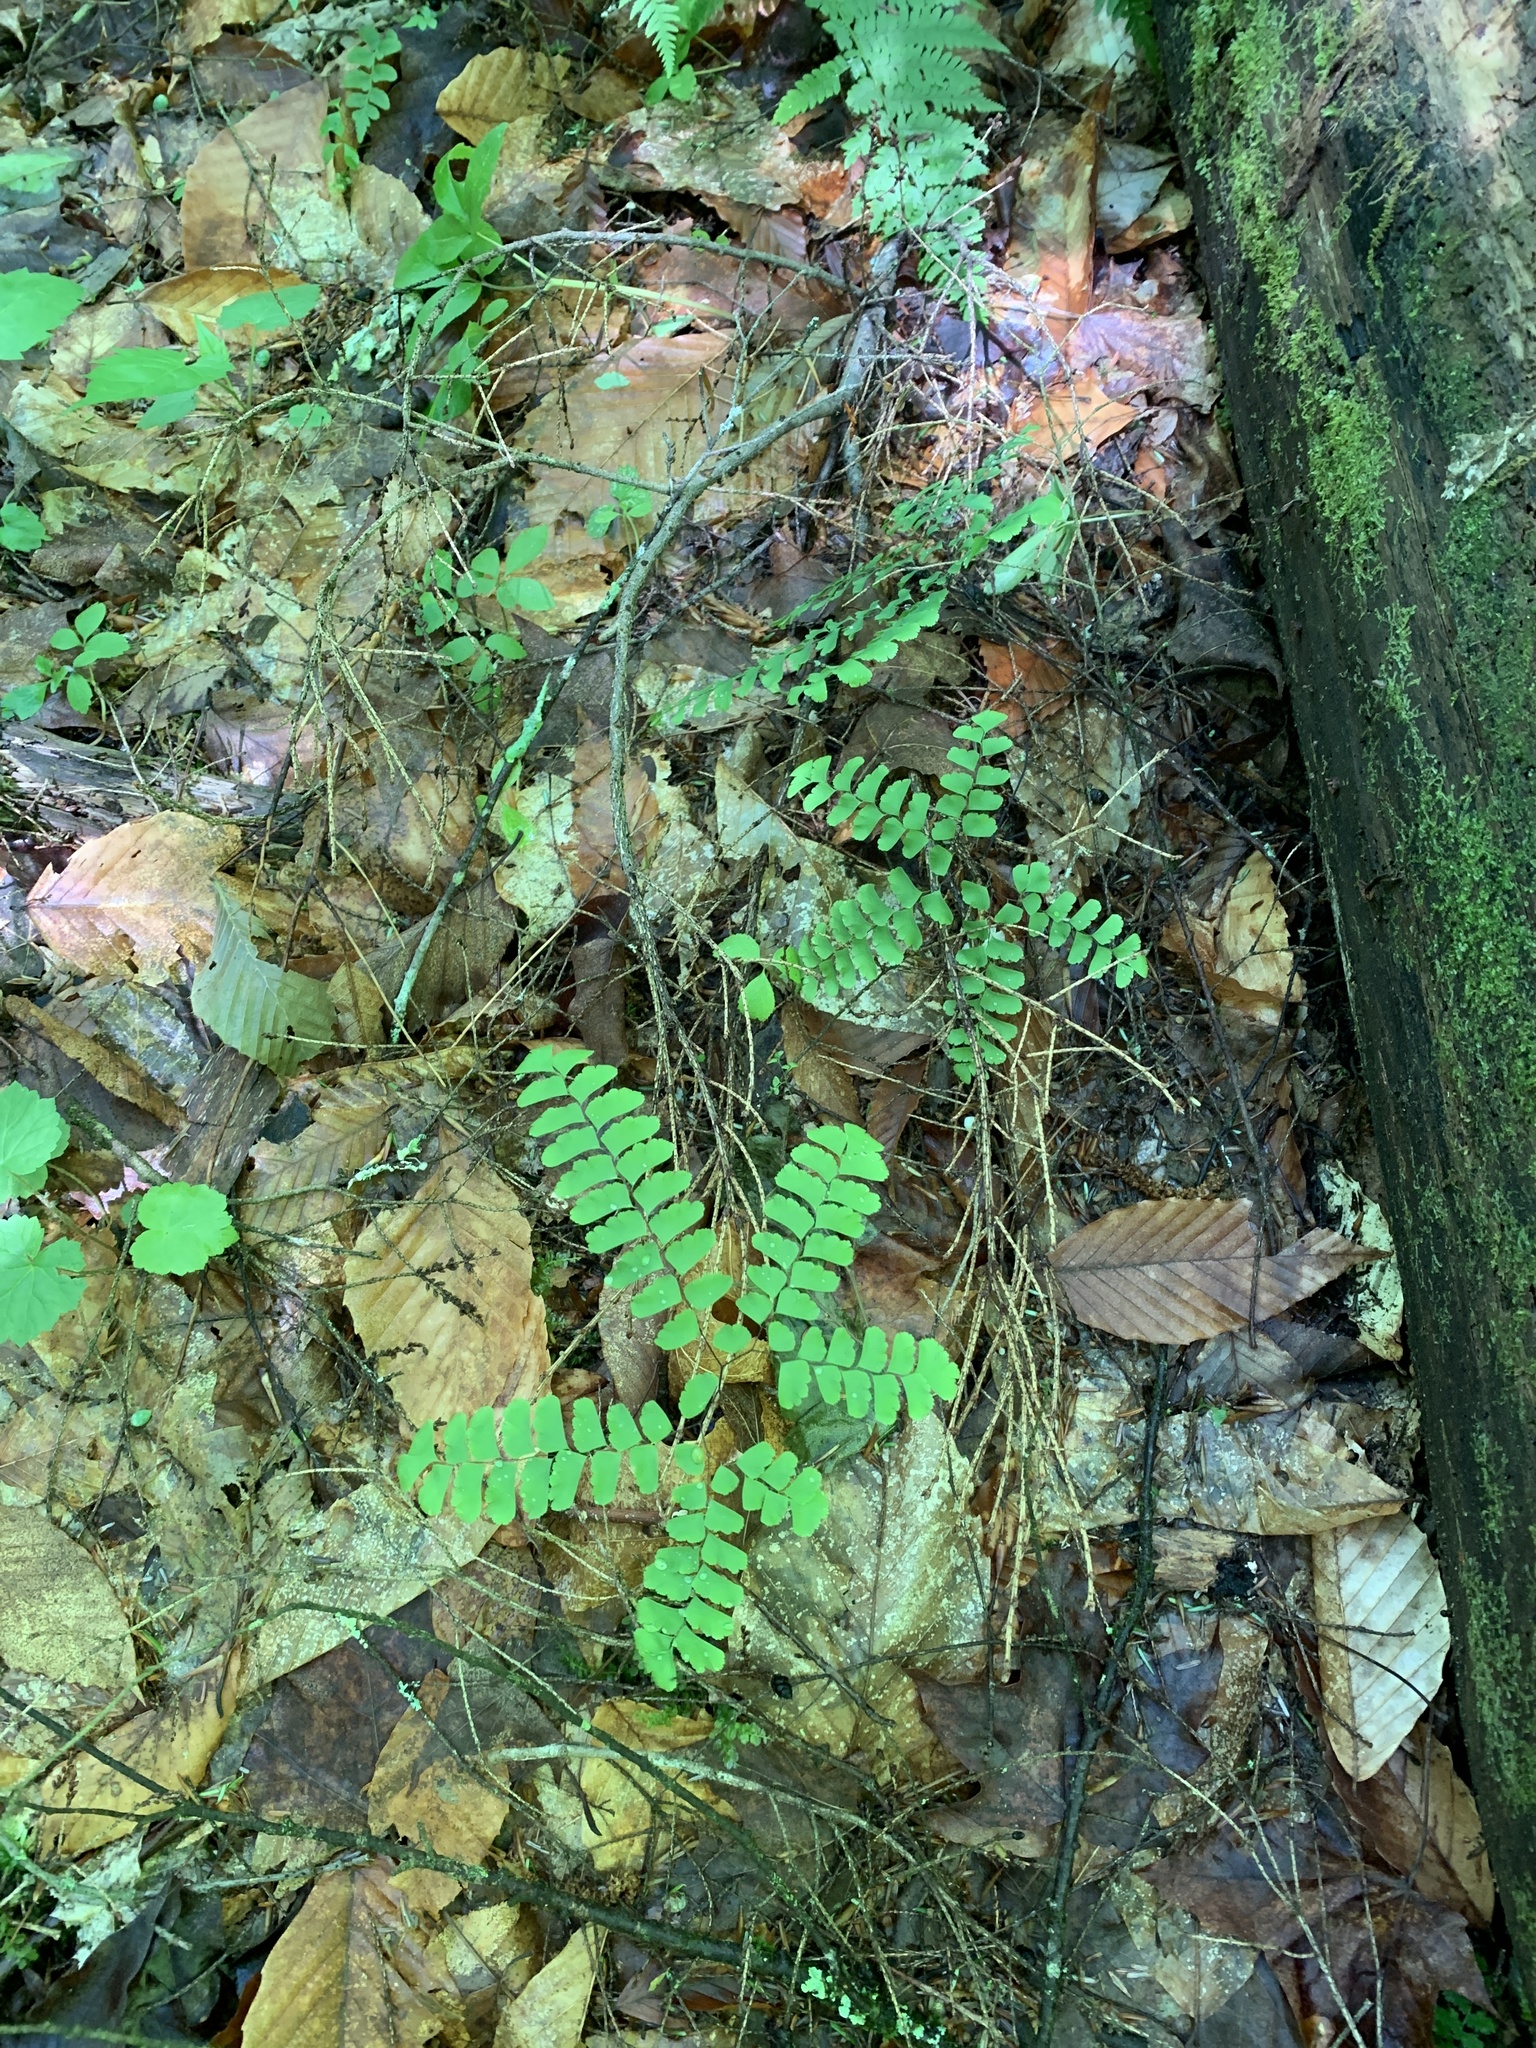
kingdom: Plantae
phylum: Tracheophyta
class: Polypodiopsida
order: Polypodiales
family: Pteridaceae
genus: Adiantum
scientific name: Adiantum pedatum
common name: Five-finger fern
